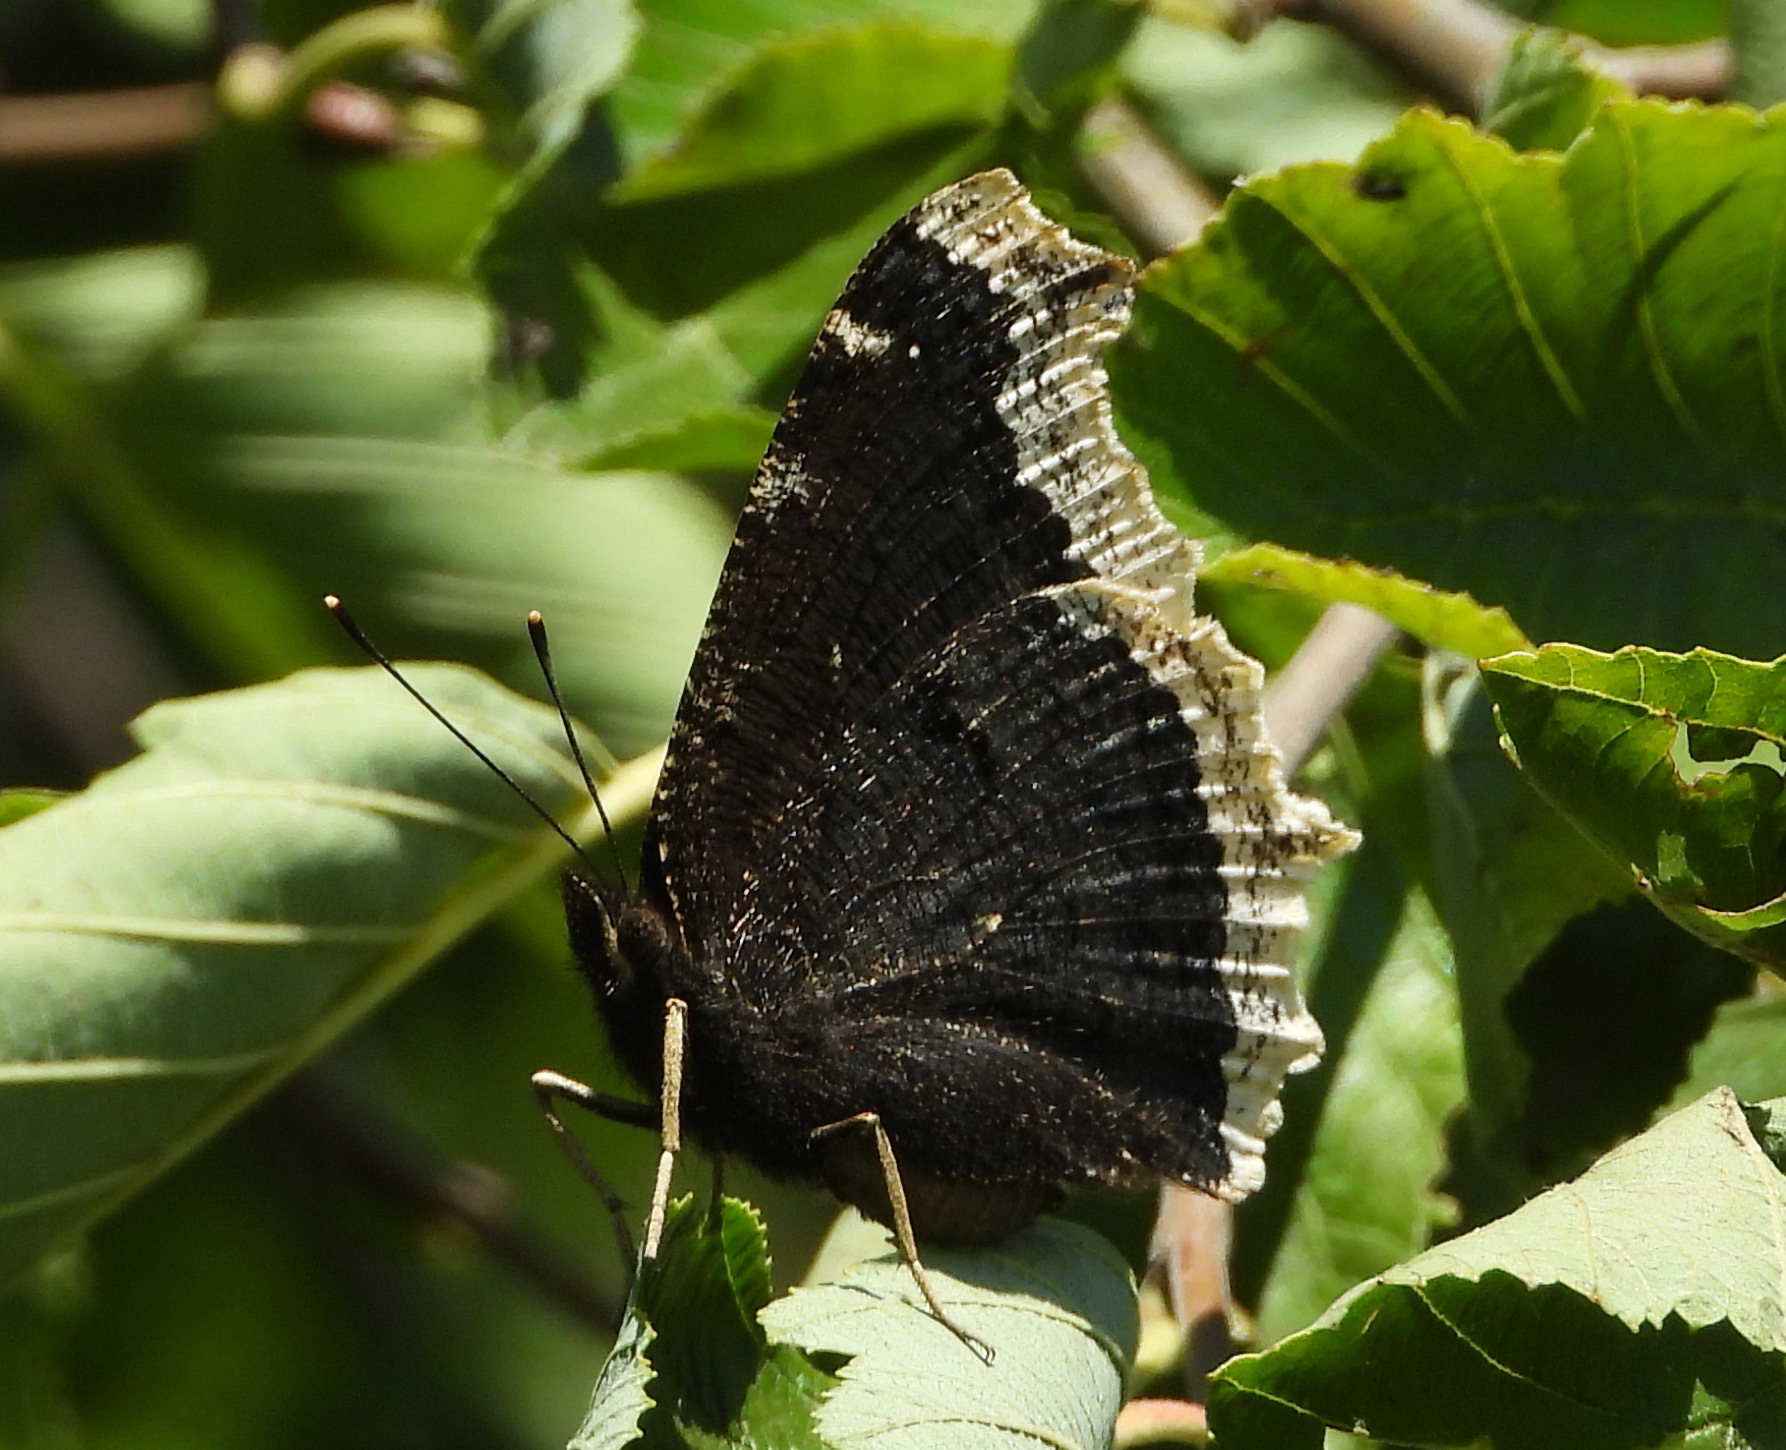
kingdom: Animalia
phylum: Arthropoda
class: Insecta
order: Lepidoptera
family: Nymphalidae
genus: Nymphalis
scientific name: Nymphalis antiopa
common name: Camberwell beauty
